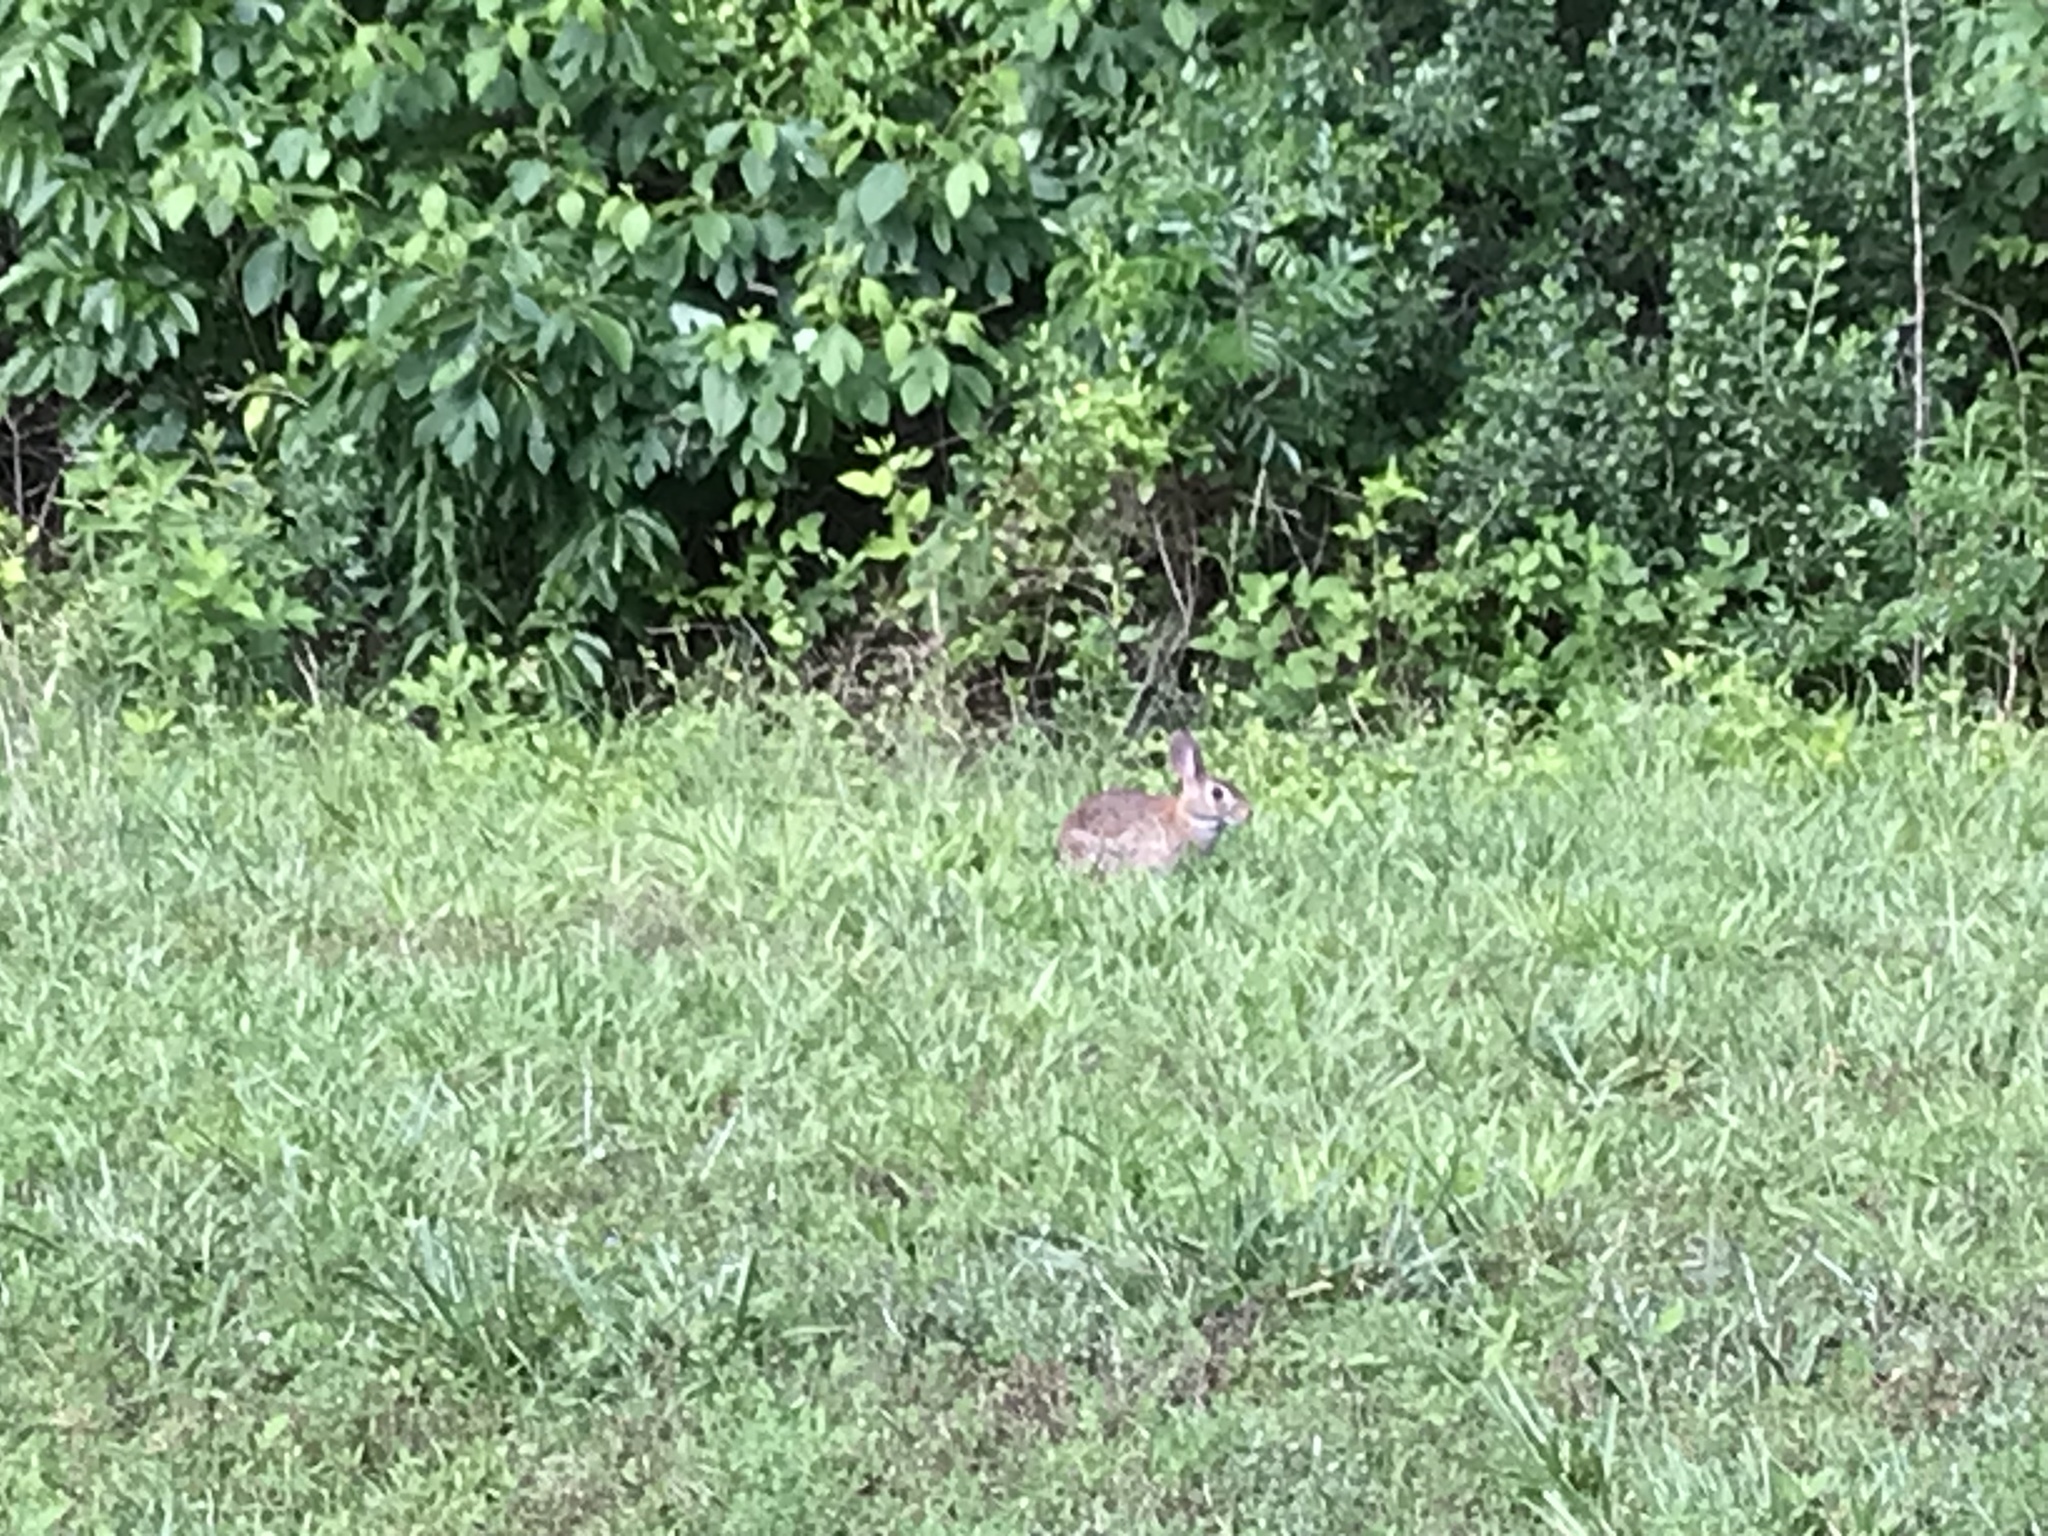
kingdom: Animalia
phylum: Chordata
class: Mammalia
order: Lagomorpha
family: Leporidae
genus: Sylvilagus
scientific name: Sylvilagus floridanus
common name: Eastern cottontail
